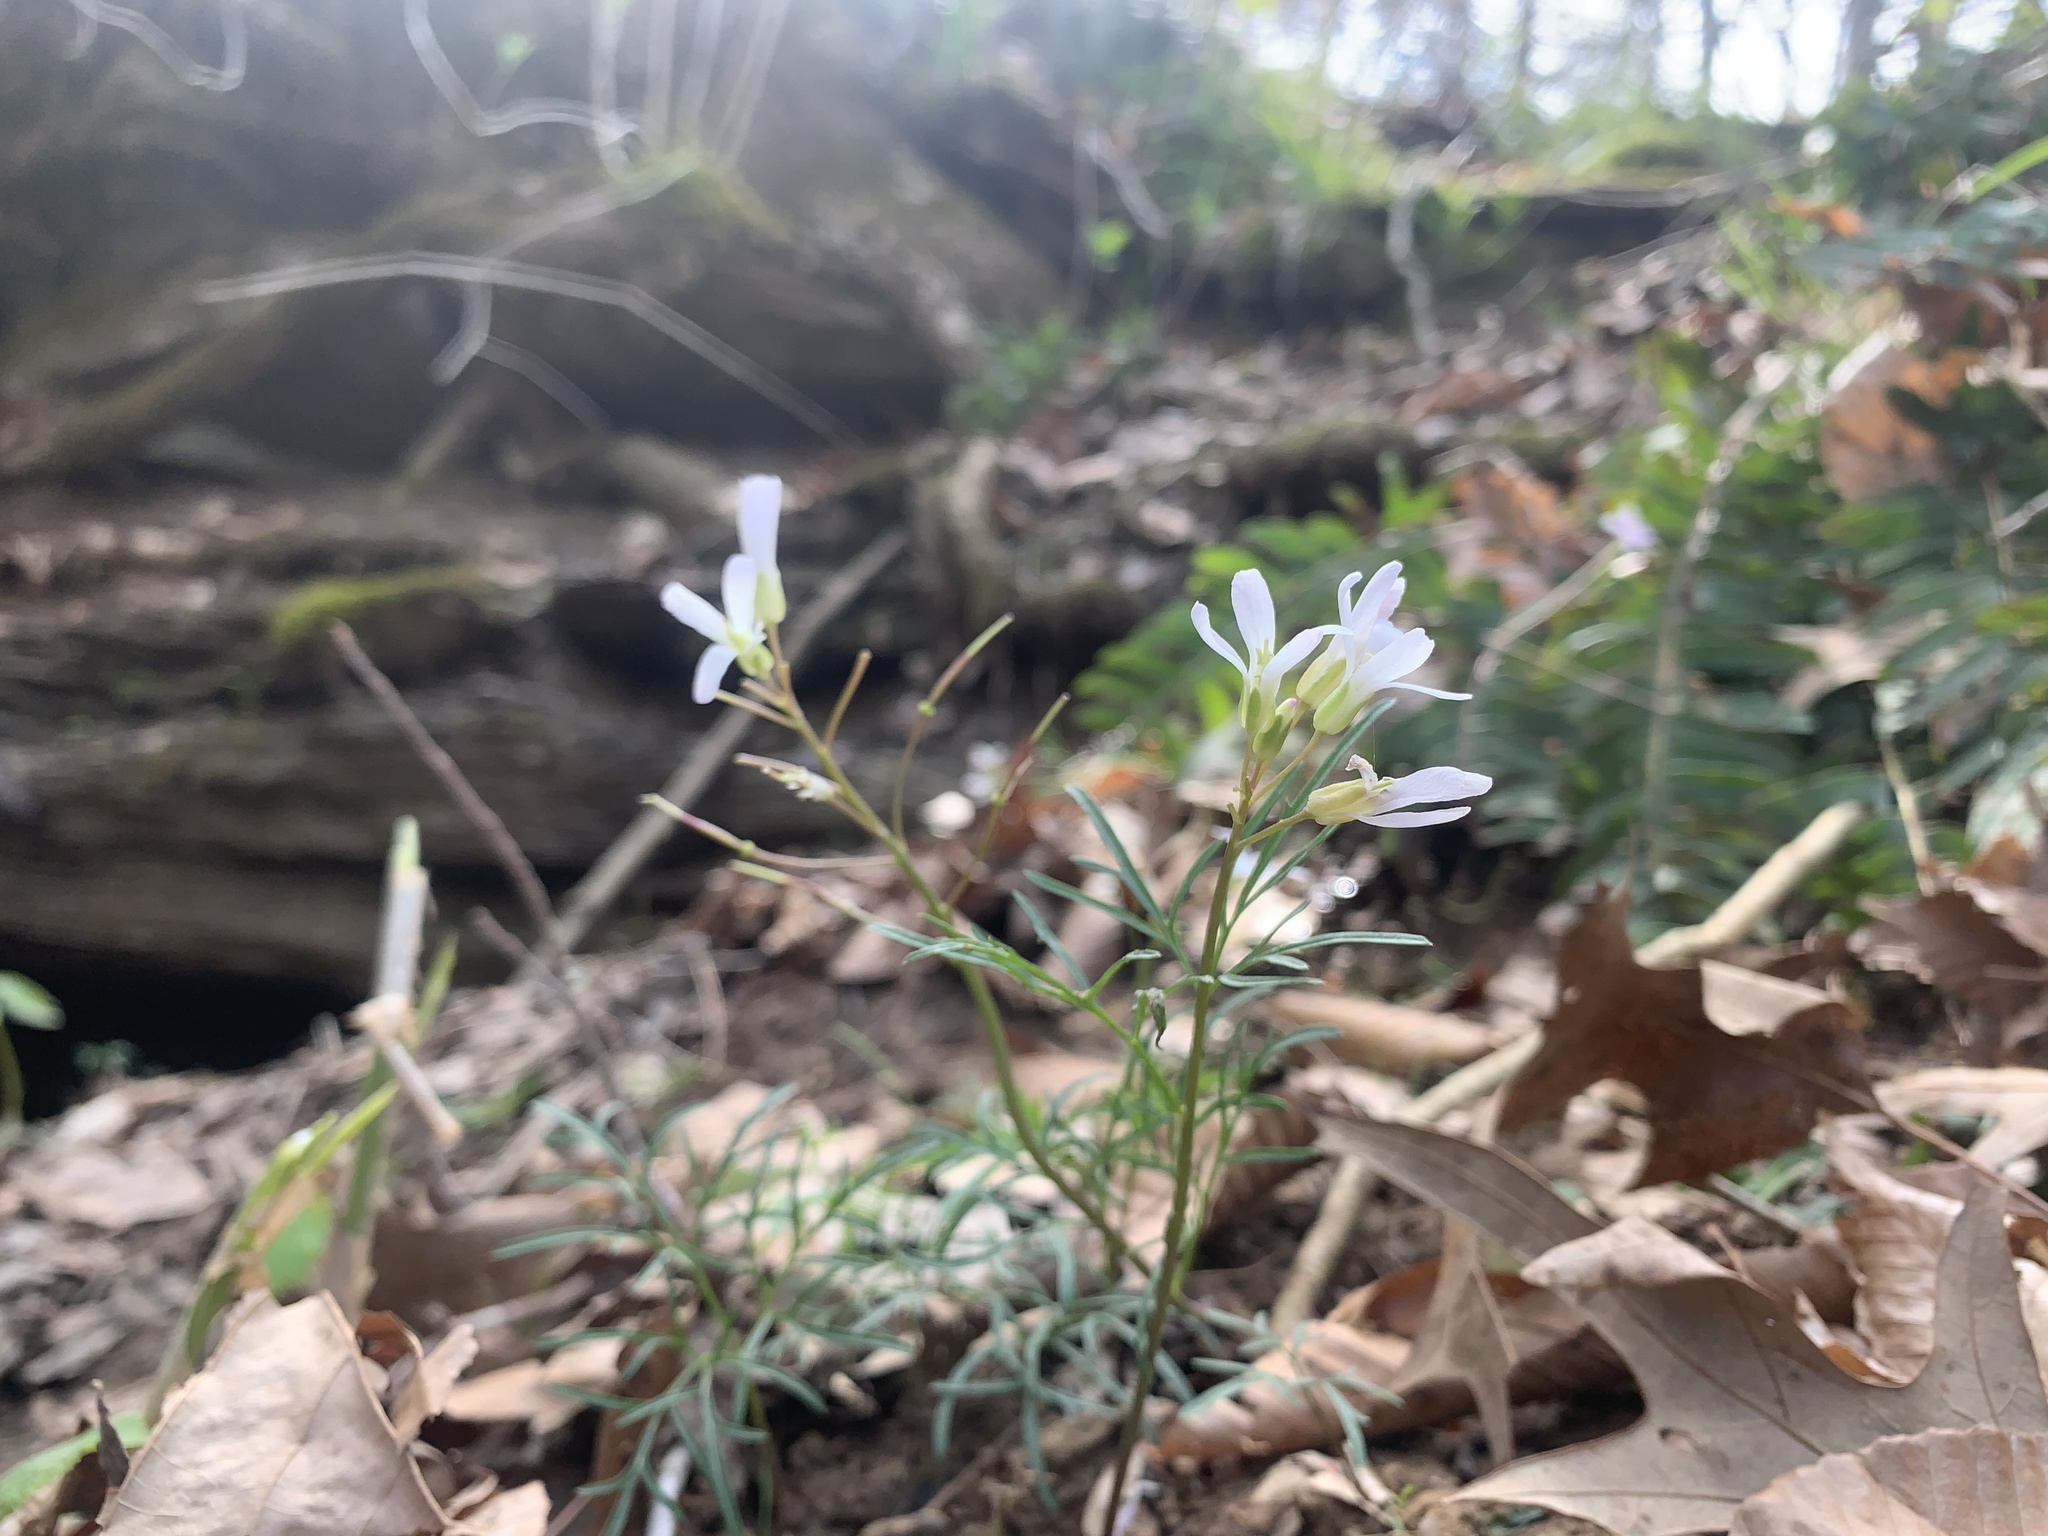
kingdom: Plantae
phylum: Tracheophyta
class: Magnoliopsida
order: Brassicales
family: Brassicaceae
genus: Cardamine
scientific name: Cardamine dissecta
